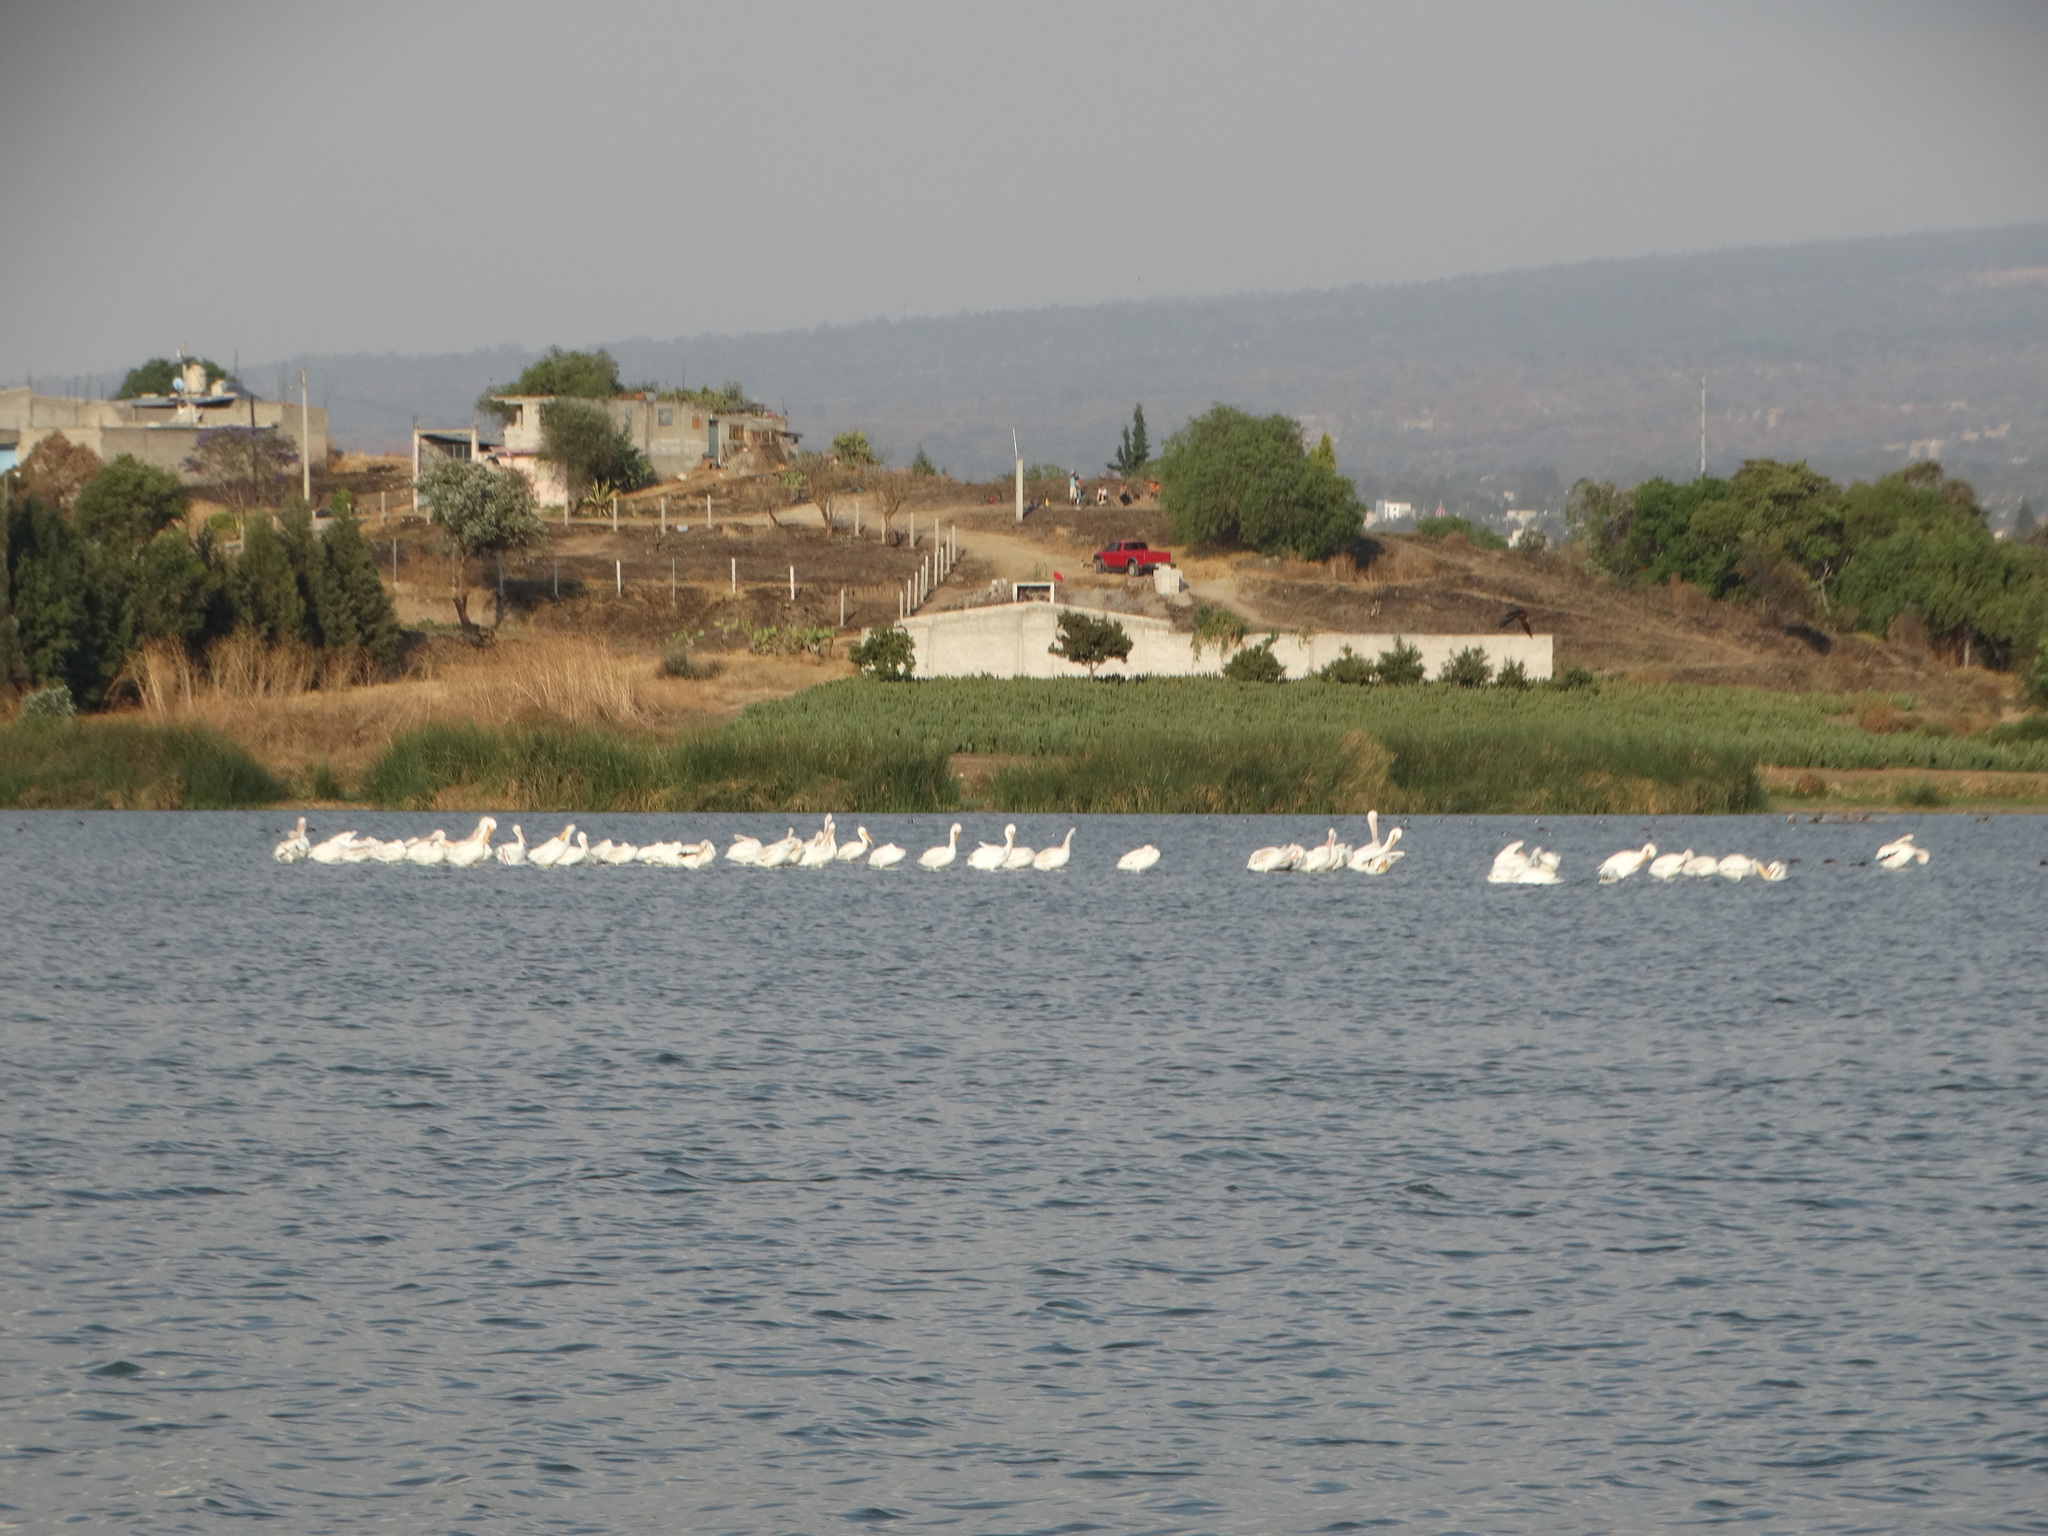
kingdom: Animalia
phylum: Chordata
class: Aves
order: Pelecaniformes
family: Pelecanidae
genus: Pelecanus
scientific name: Pelecanus erythrorhynchos
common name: American white pelican
